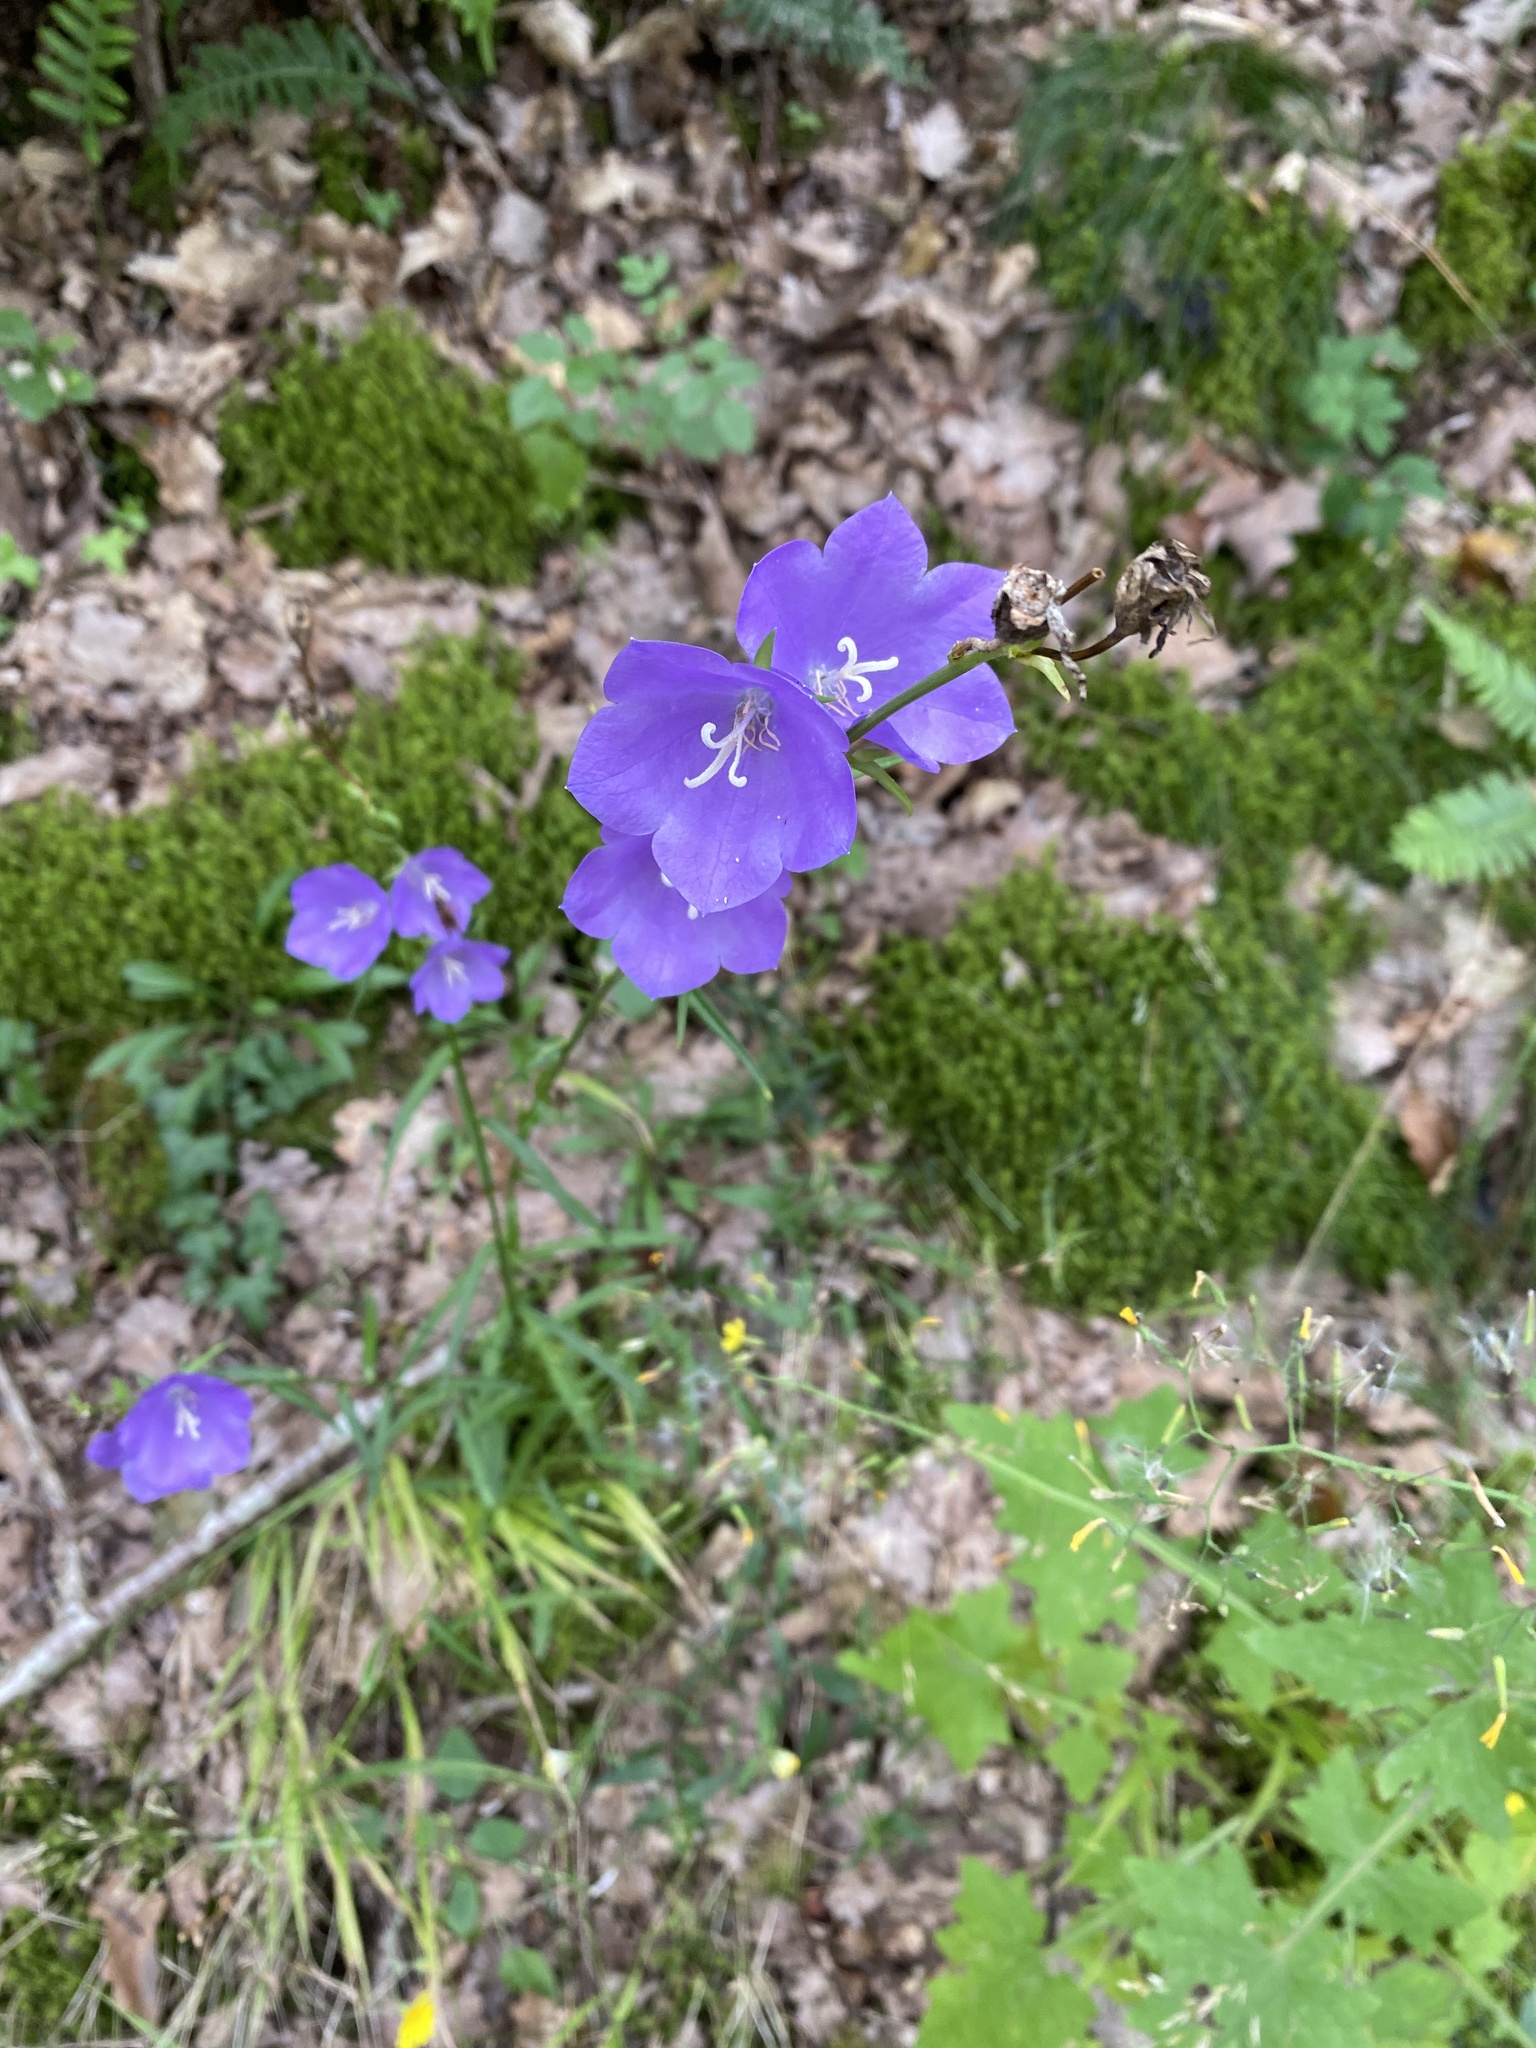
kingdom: Plantae
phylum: Tracheophyta
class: Magnoliopsida
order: Asterales
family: Campanulaceae
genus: Campanula
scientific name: Campanula persicifolia
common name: Peach-leaved bellflower
